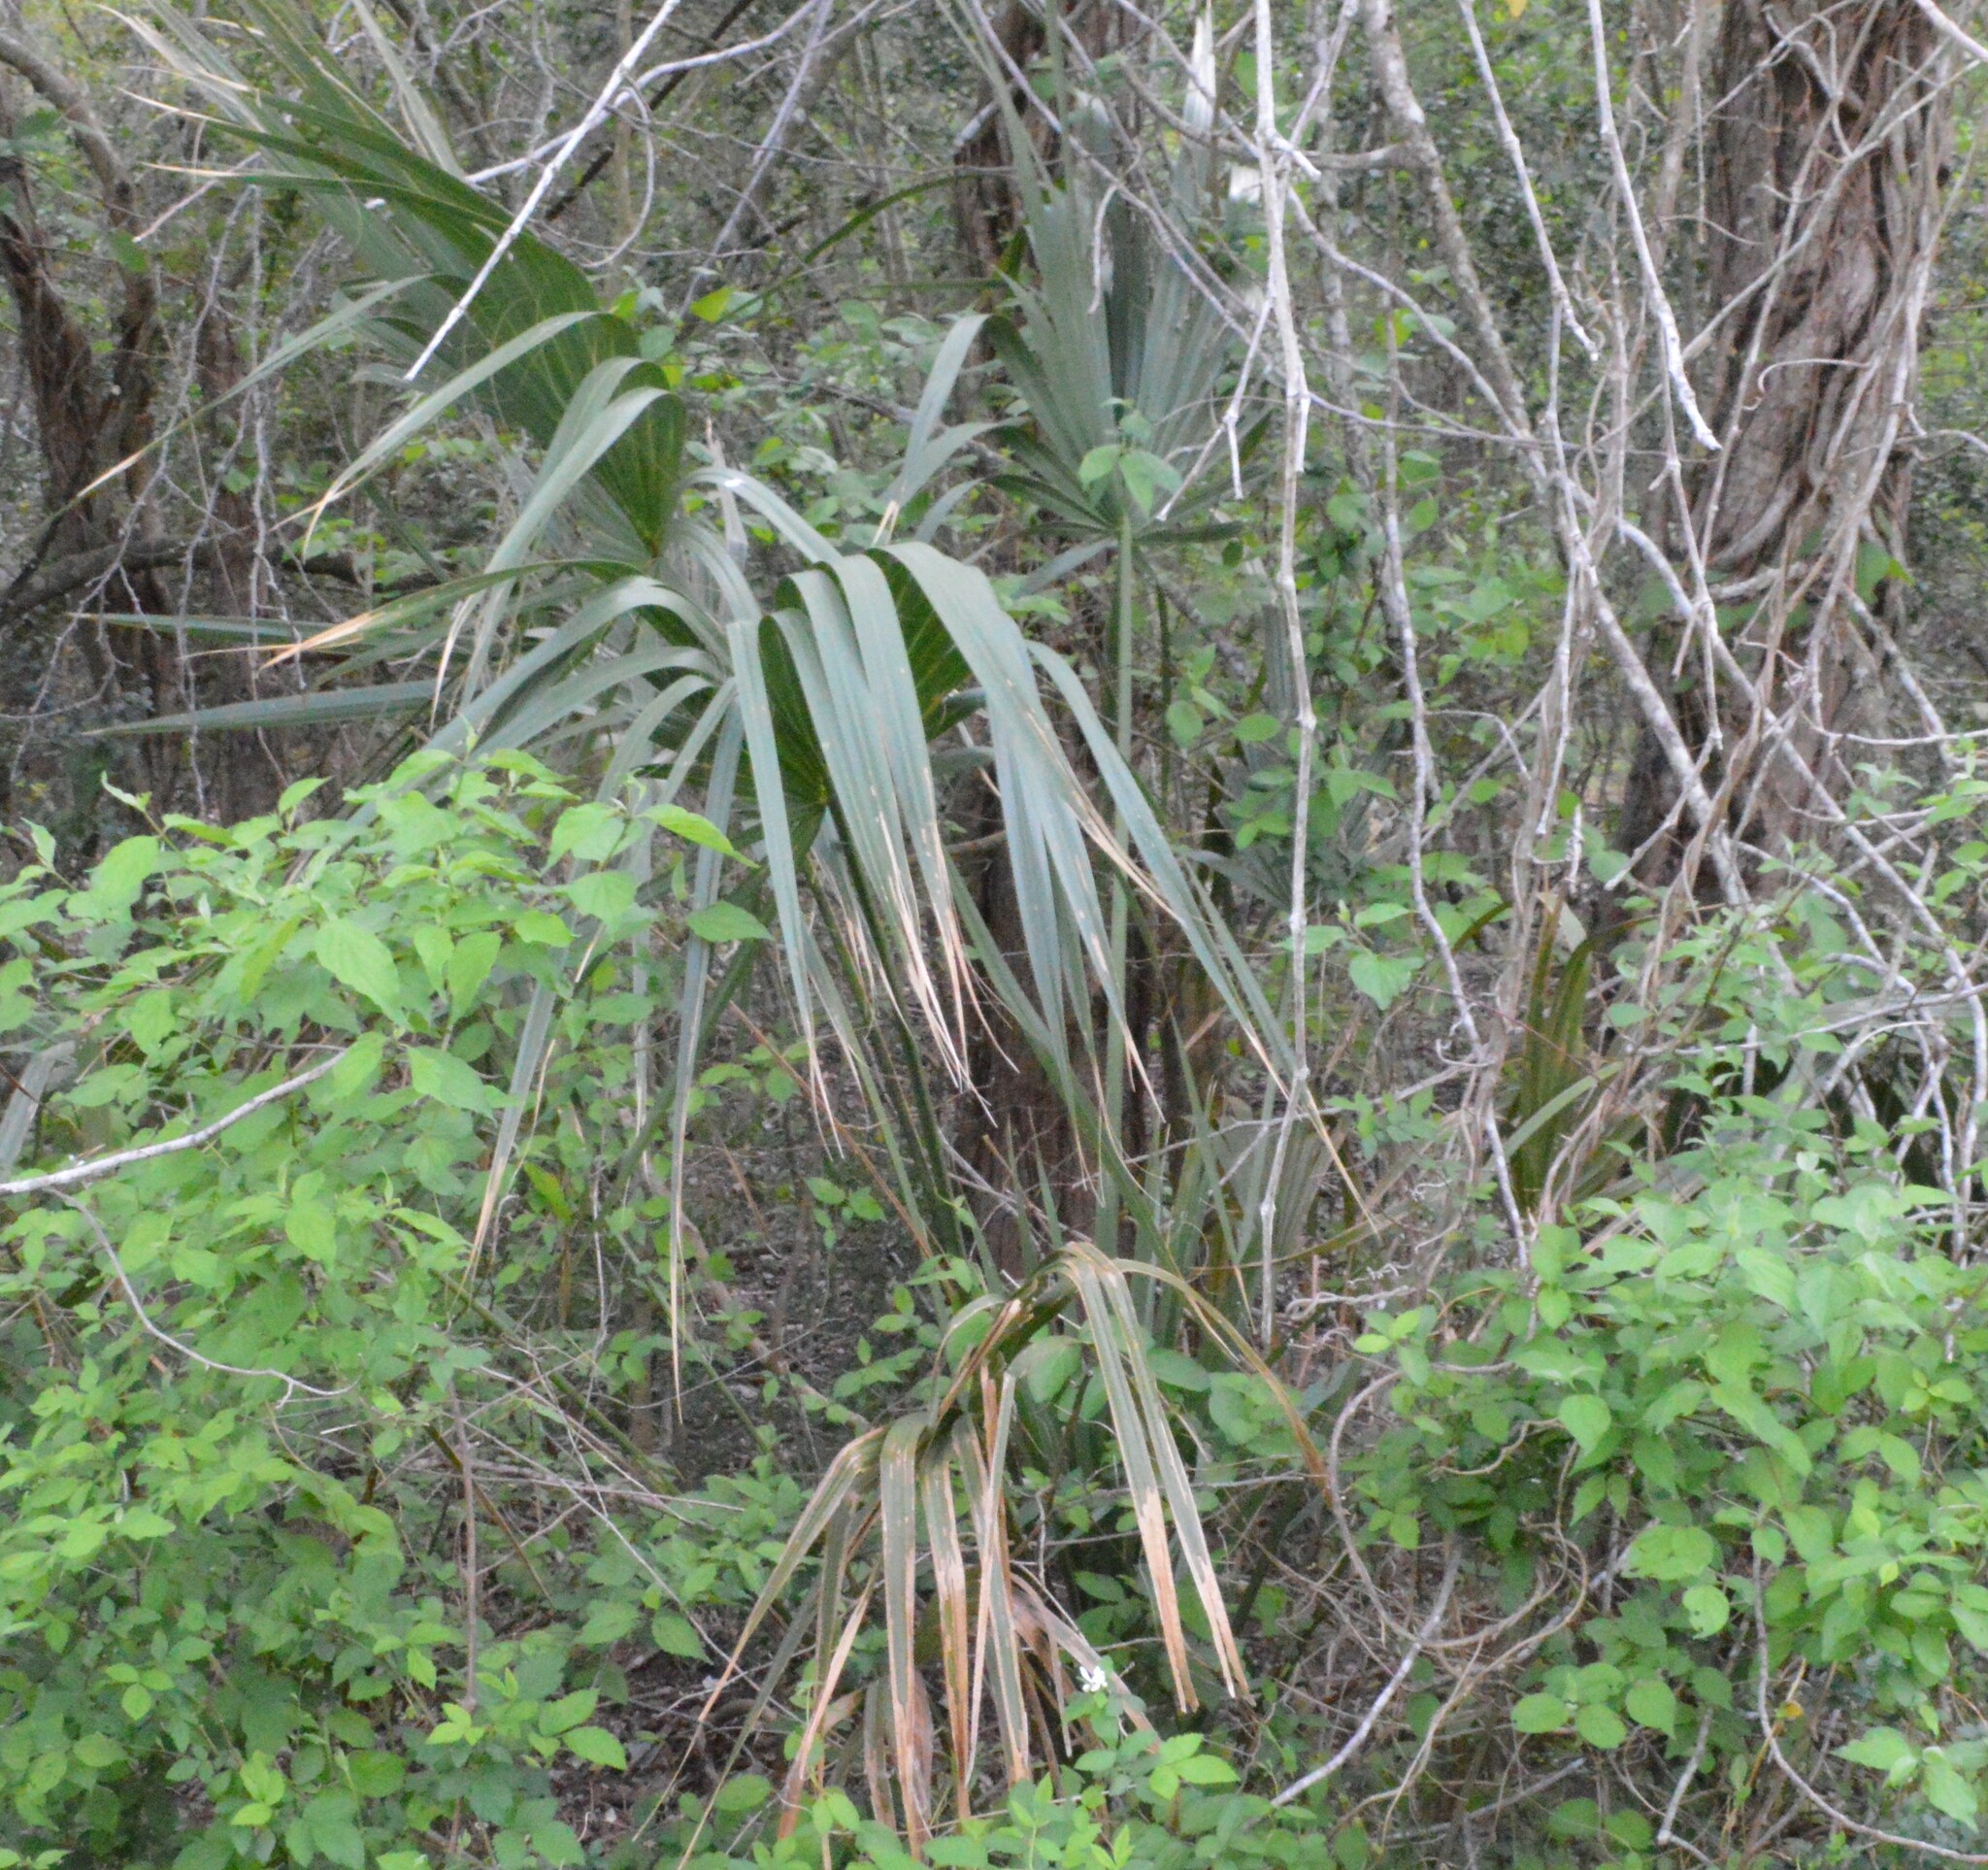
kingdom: Plantae
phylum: Tracheophyta
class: Liliopsida
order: Arecales
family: Arecaceae
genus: Sabal
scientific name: Sabal minor
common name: Dwarf palmetto
